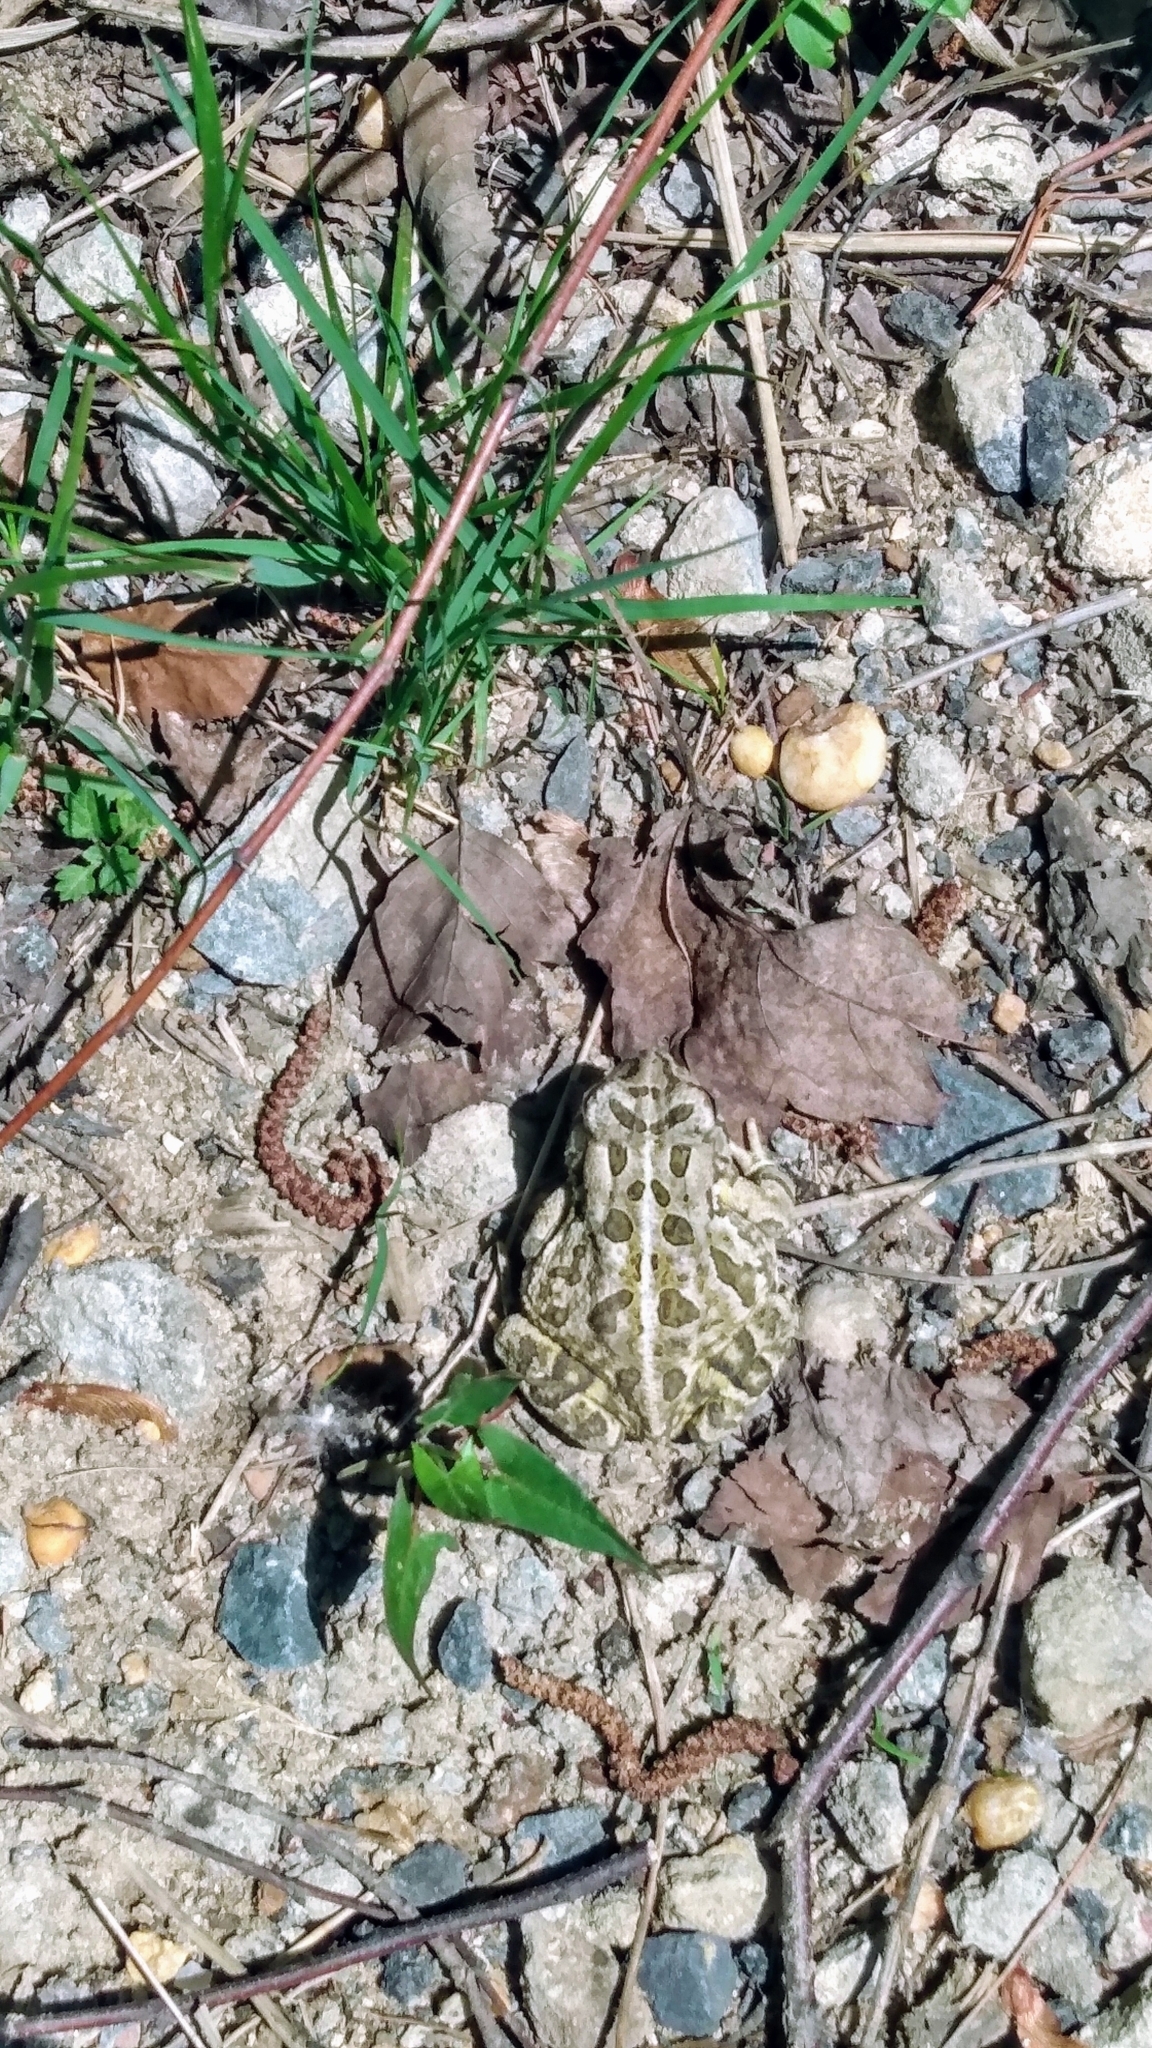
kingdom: Animalia
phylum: Chordata
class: Amphibia
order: Anura
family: Bufonidae
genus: Anaxyrus
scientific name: Anaxyrus fowleri
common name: Fowler's toad
